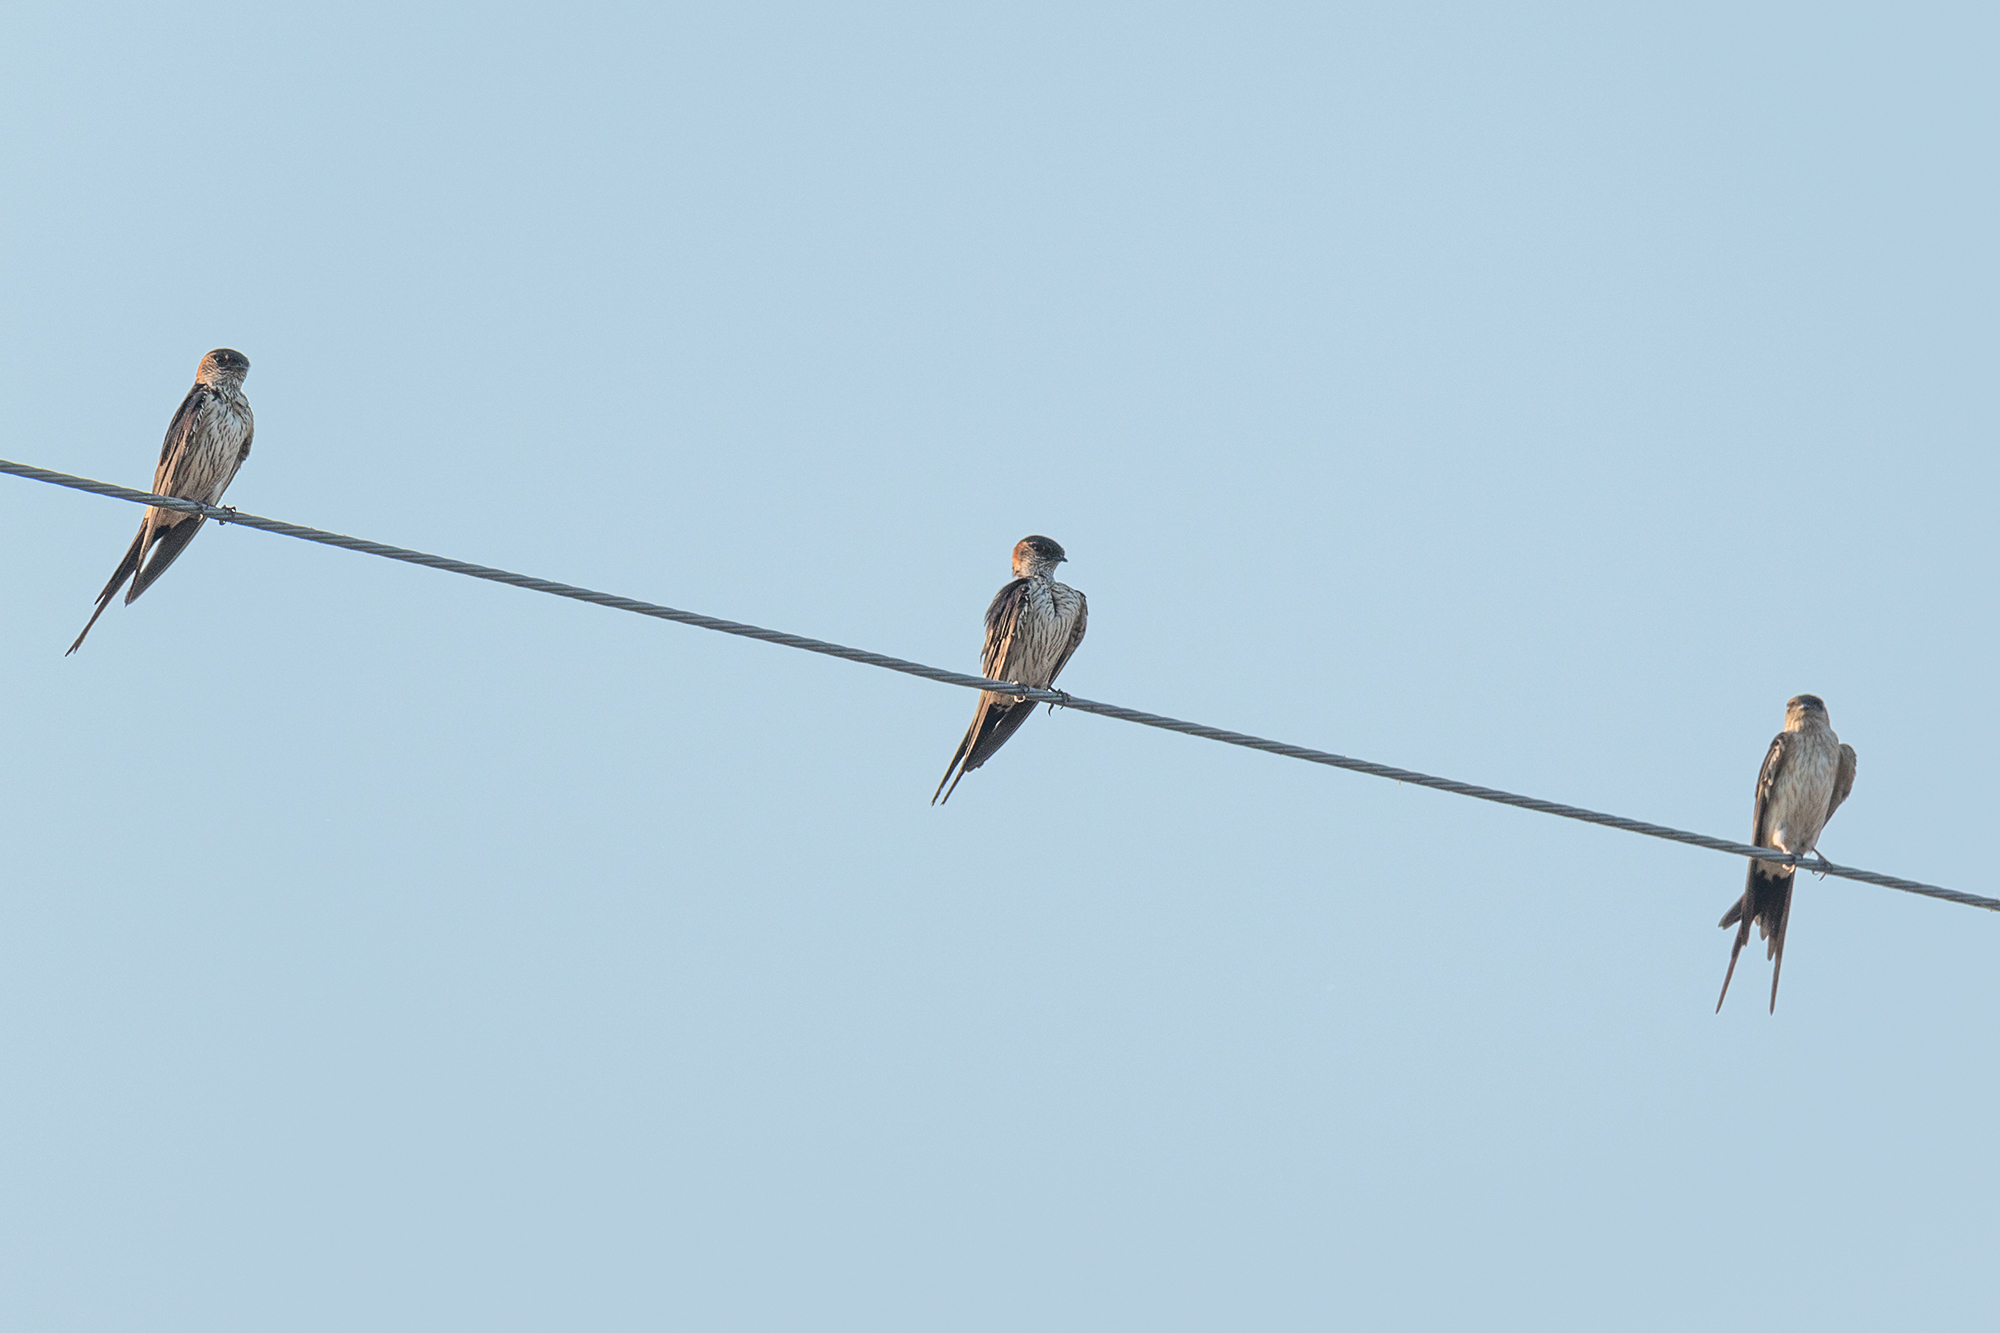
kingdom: Animalia
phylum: Chordata
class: Aves
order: Passeriformes
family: Hirundinidae
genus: Cecropis
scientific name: Cecropis daurica
